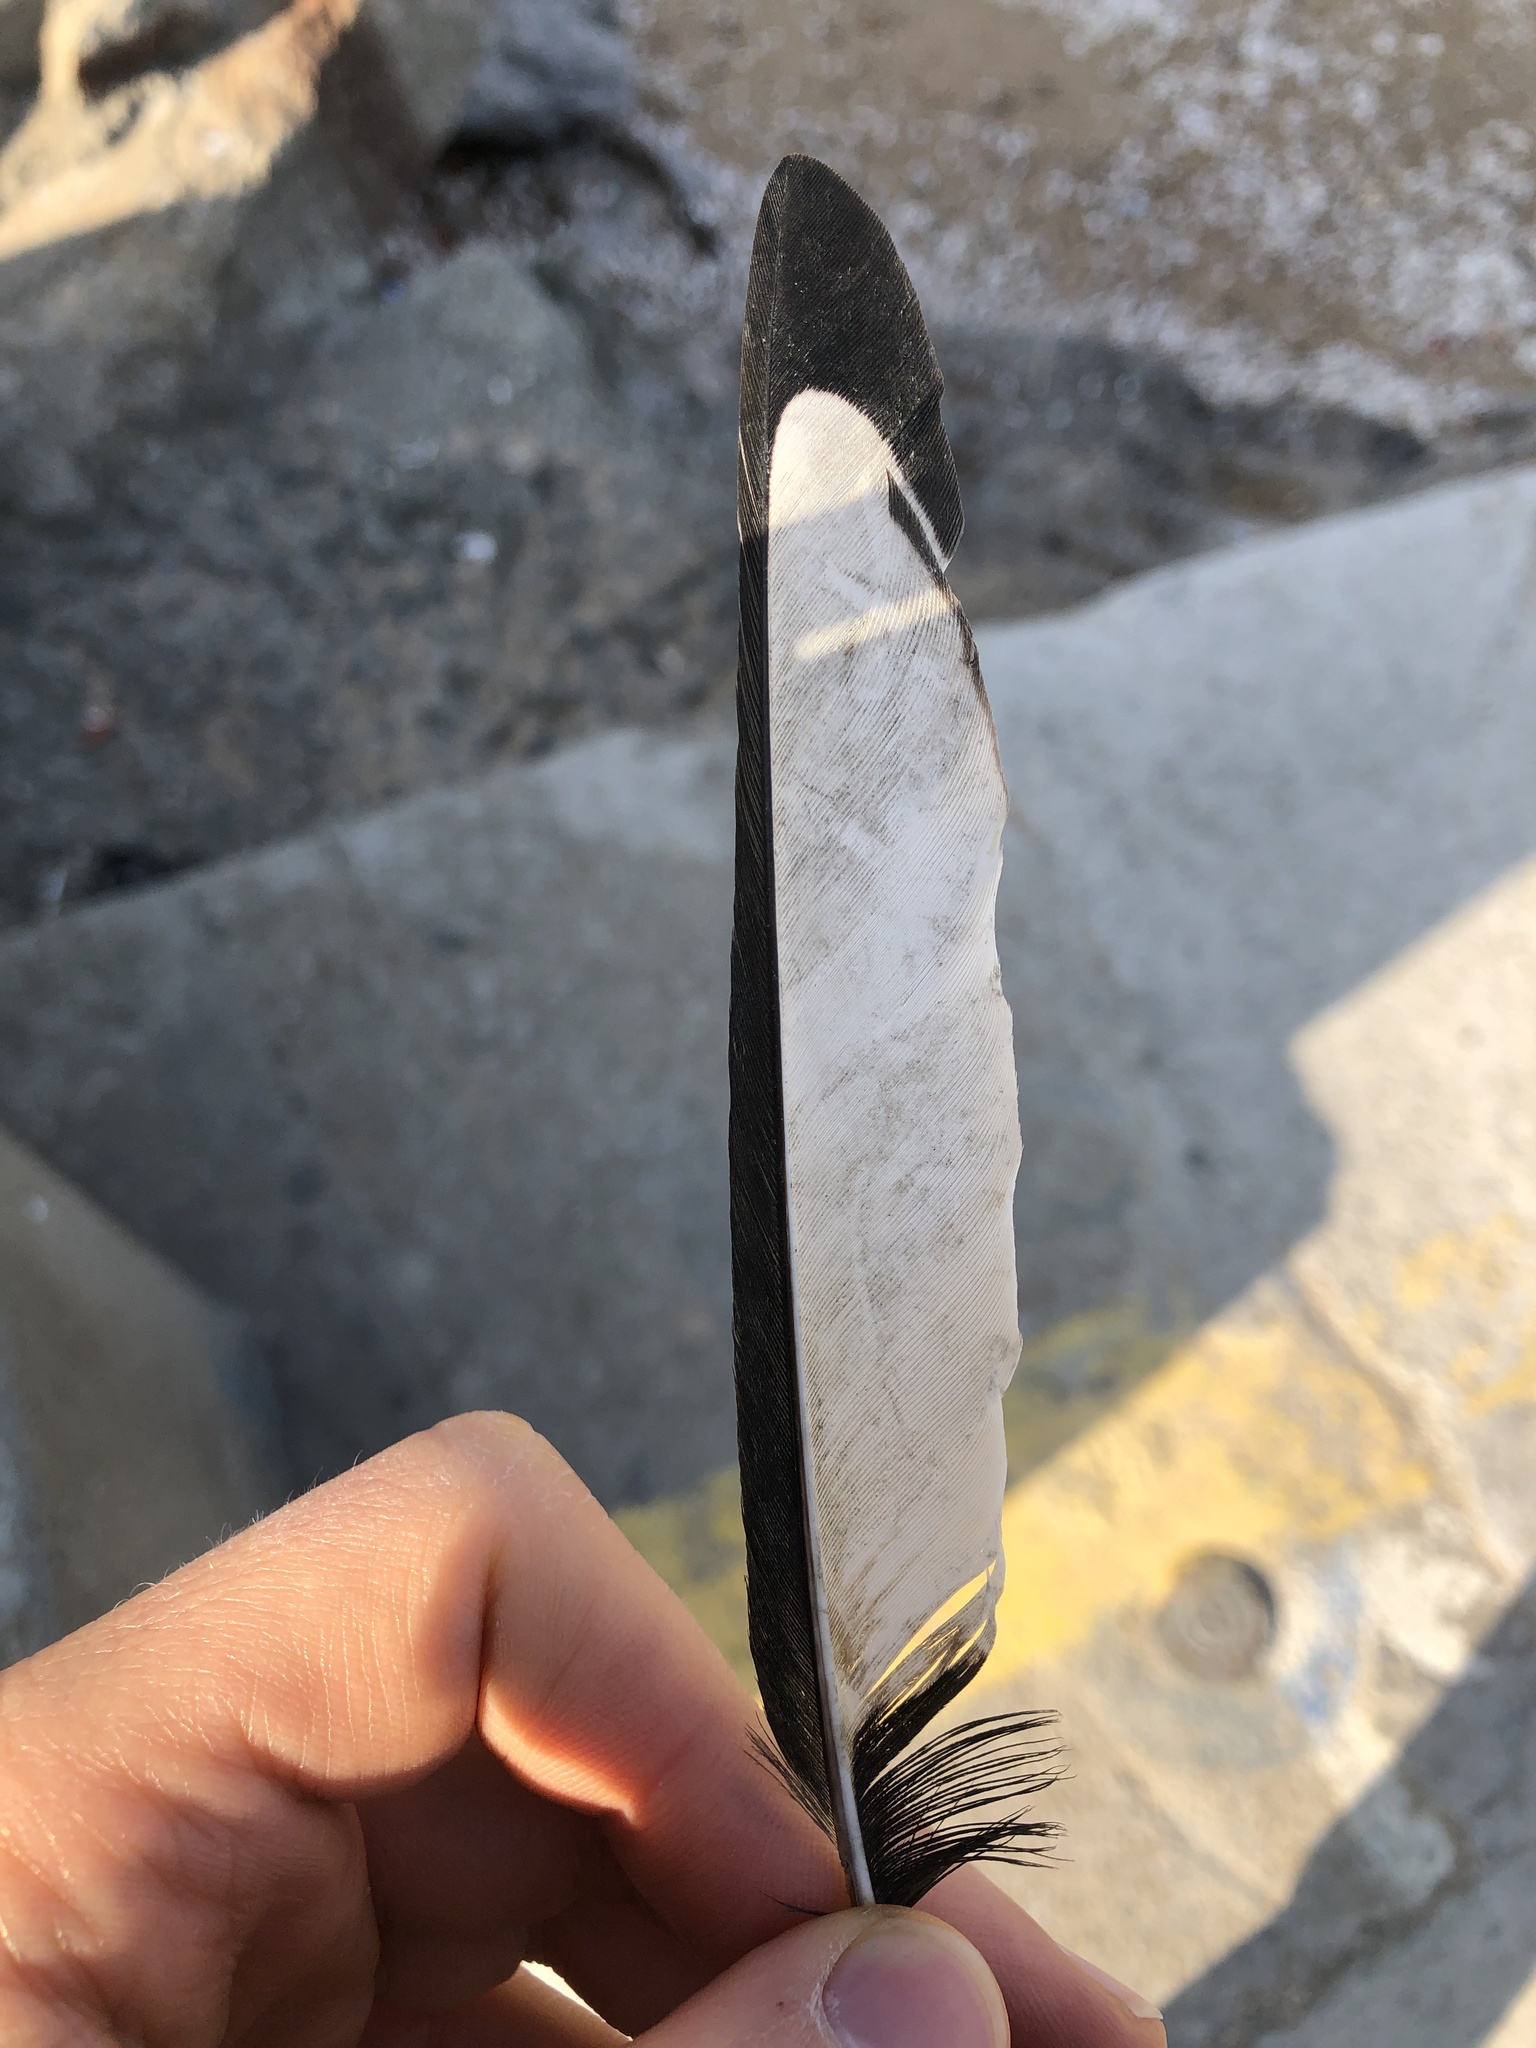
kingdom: Animalia
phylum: Chordata
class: Aves
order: Passeriformes
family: Corvidae
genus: Pica
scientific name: Pica serica
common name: Oriental magpie
